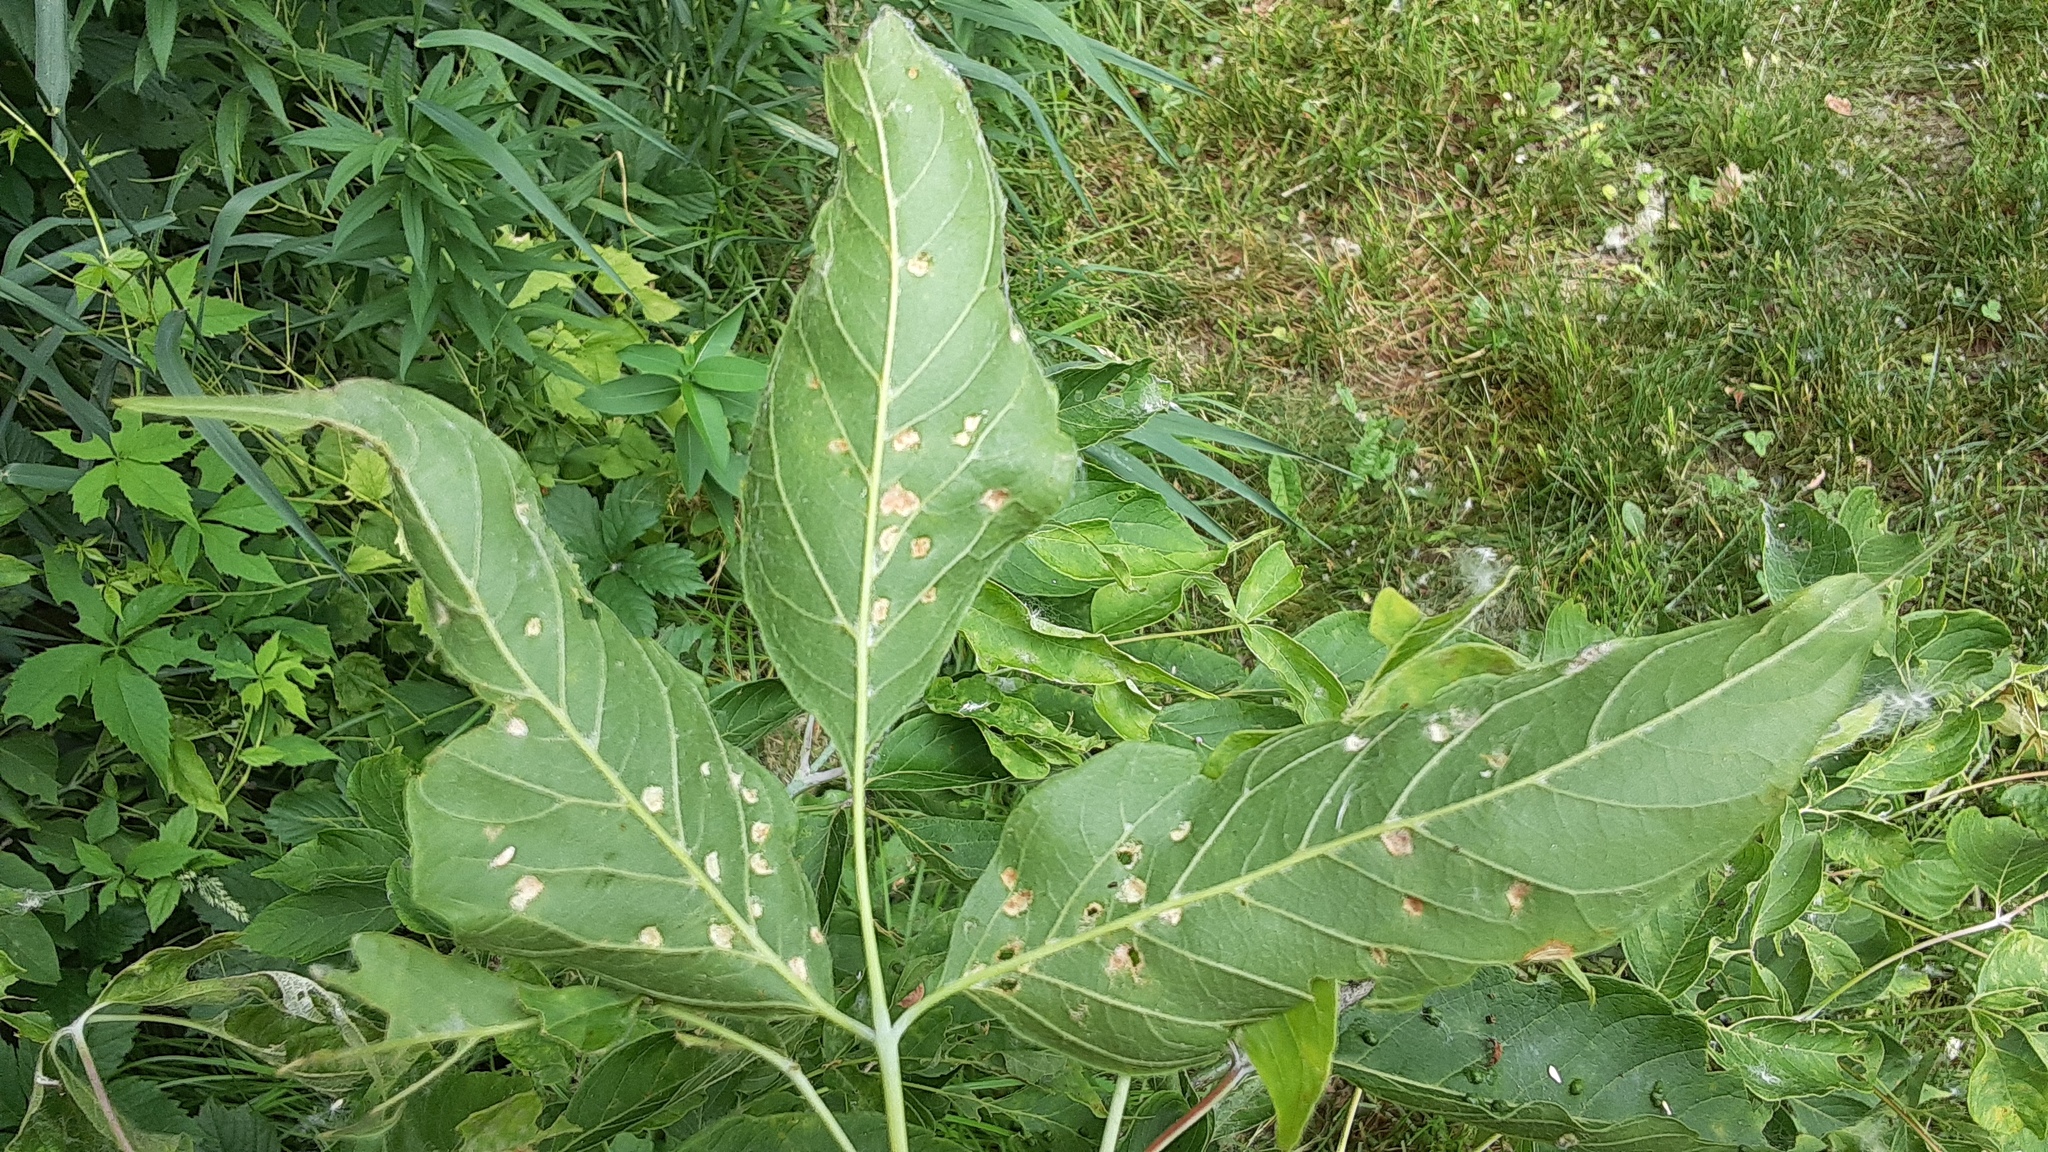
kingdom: Animalia
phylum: Arthropoda
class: Arachnida
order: Trombidiformes
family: Eriophyidae
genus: Aceria
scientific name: Aceria
